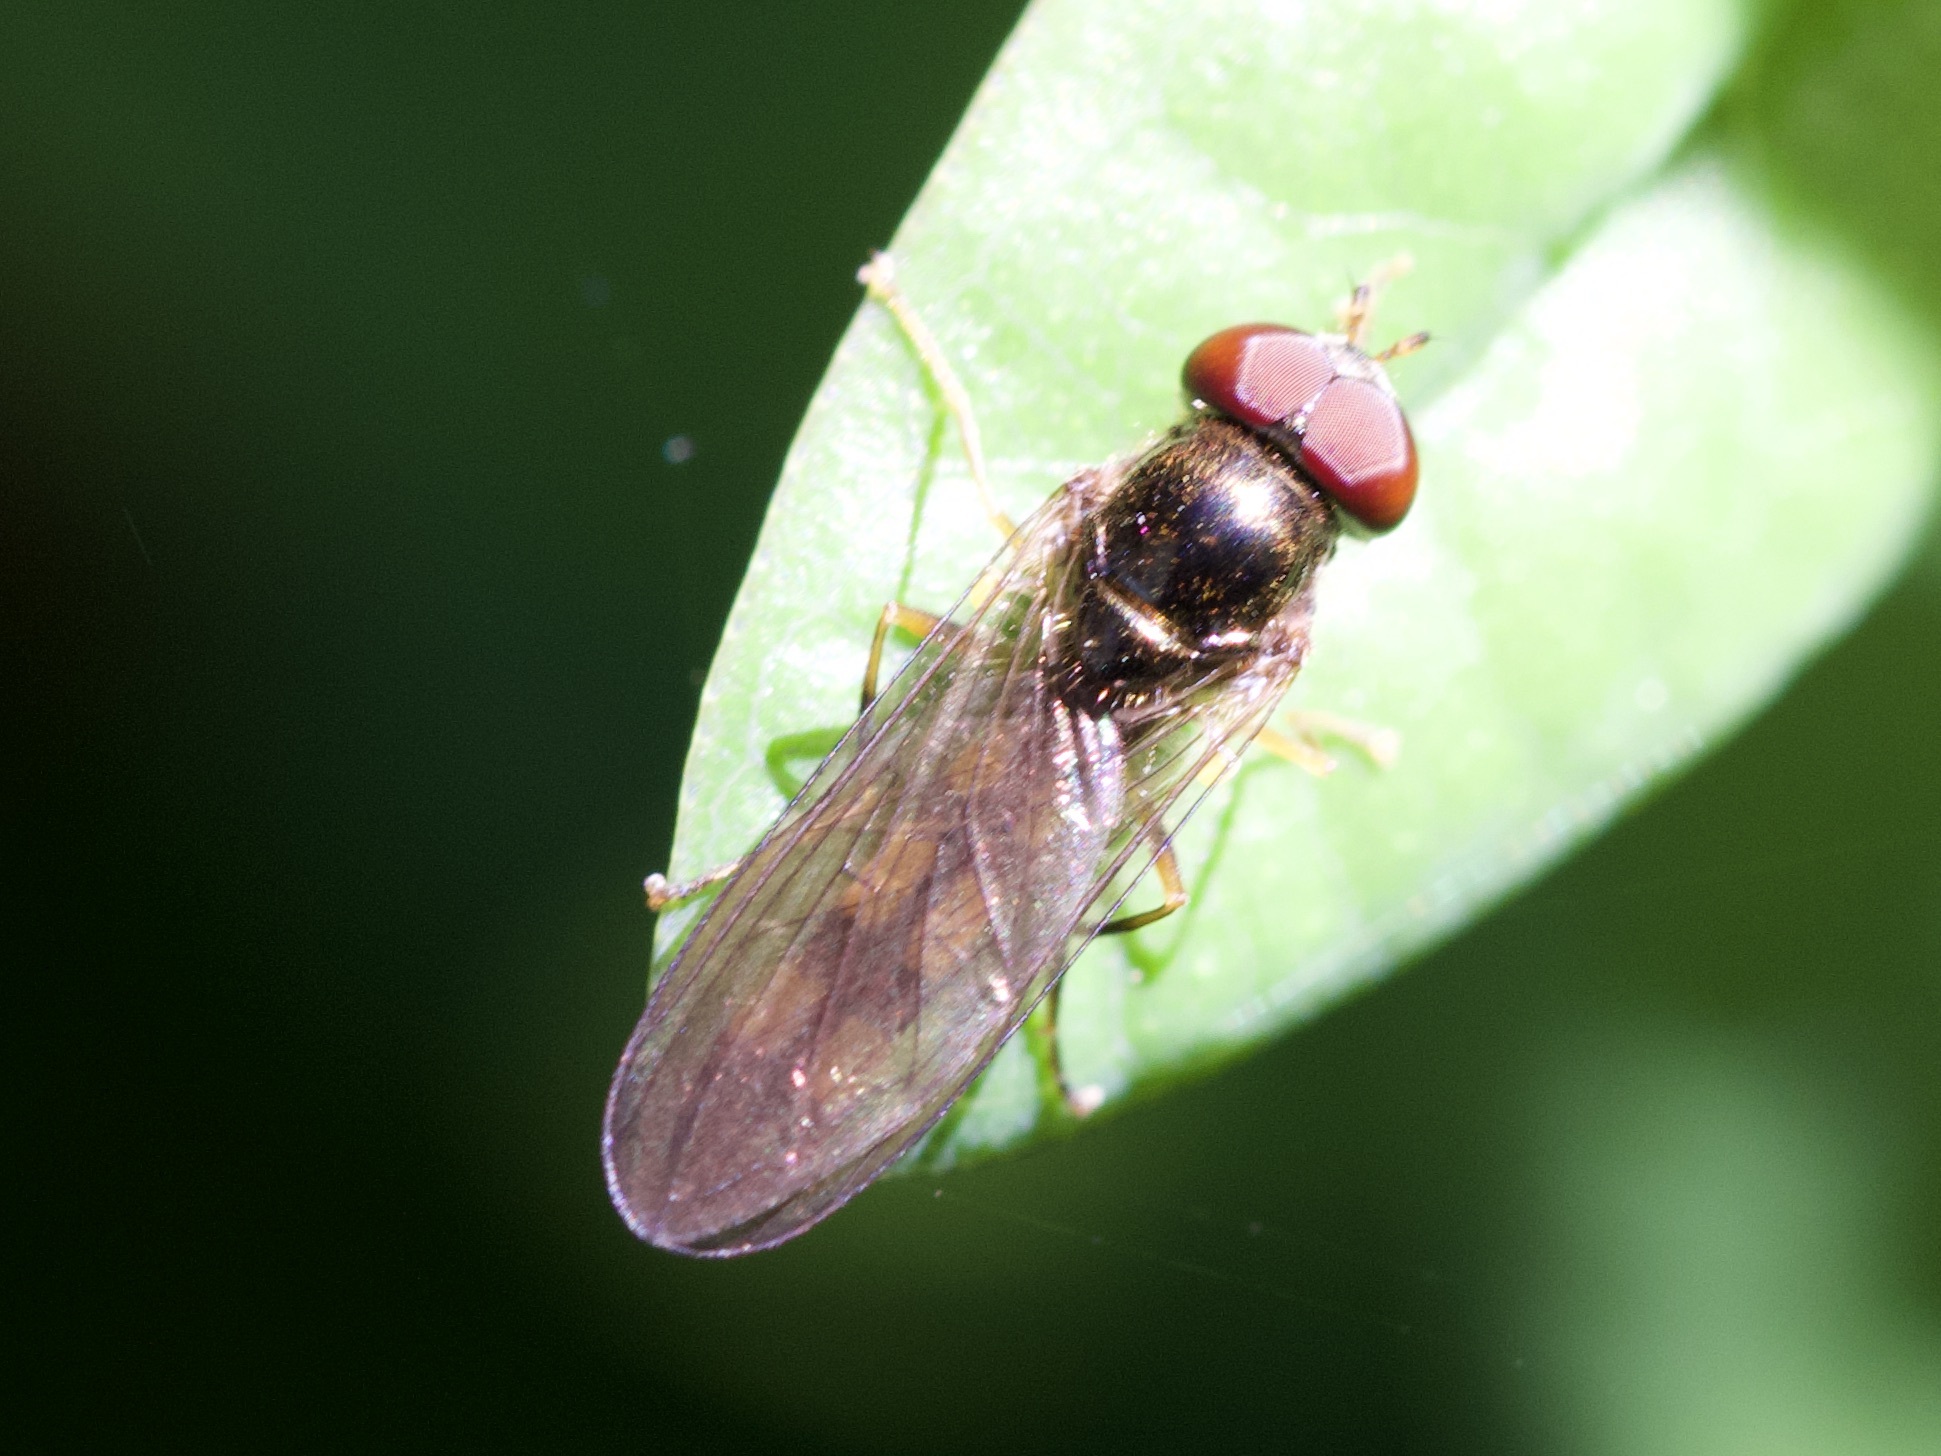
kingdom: Animalia
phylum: Arthropoda
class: Insecta
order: Diptera
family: Syrphidae
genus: Melanostoma
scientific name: Melanostoma scalare
